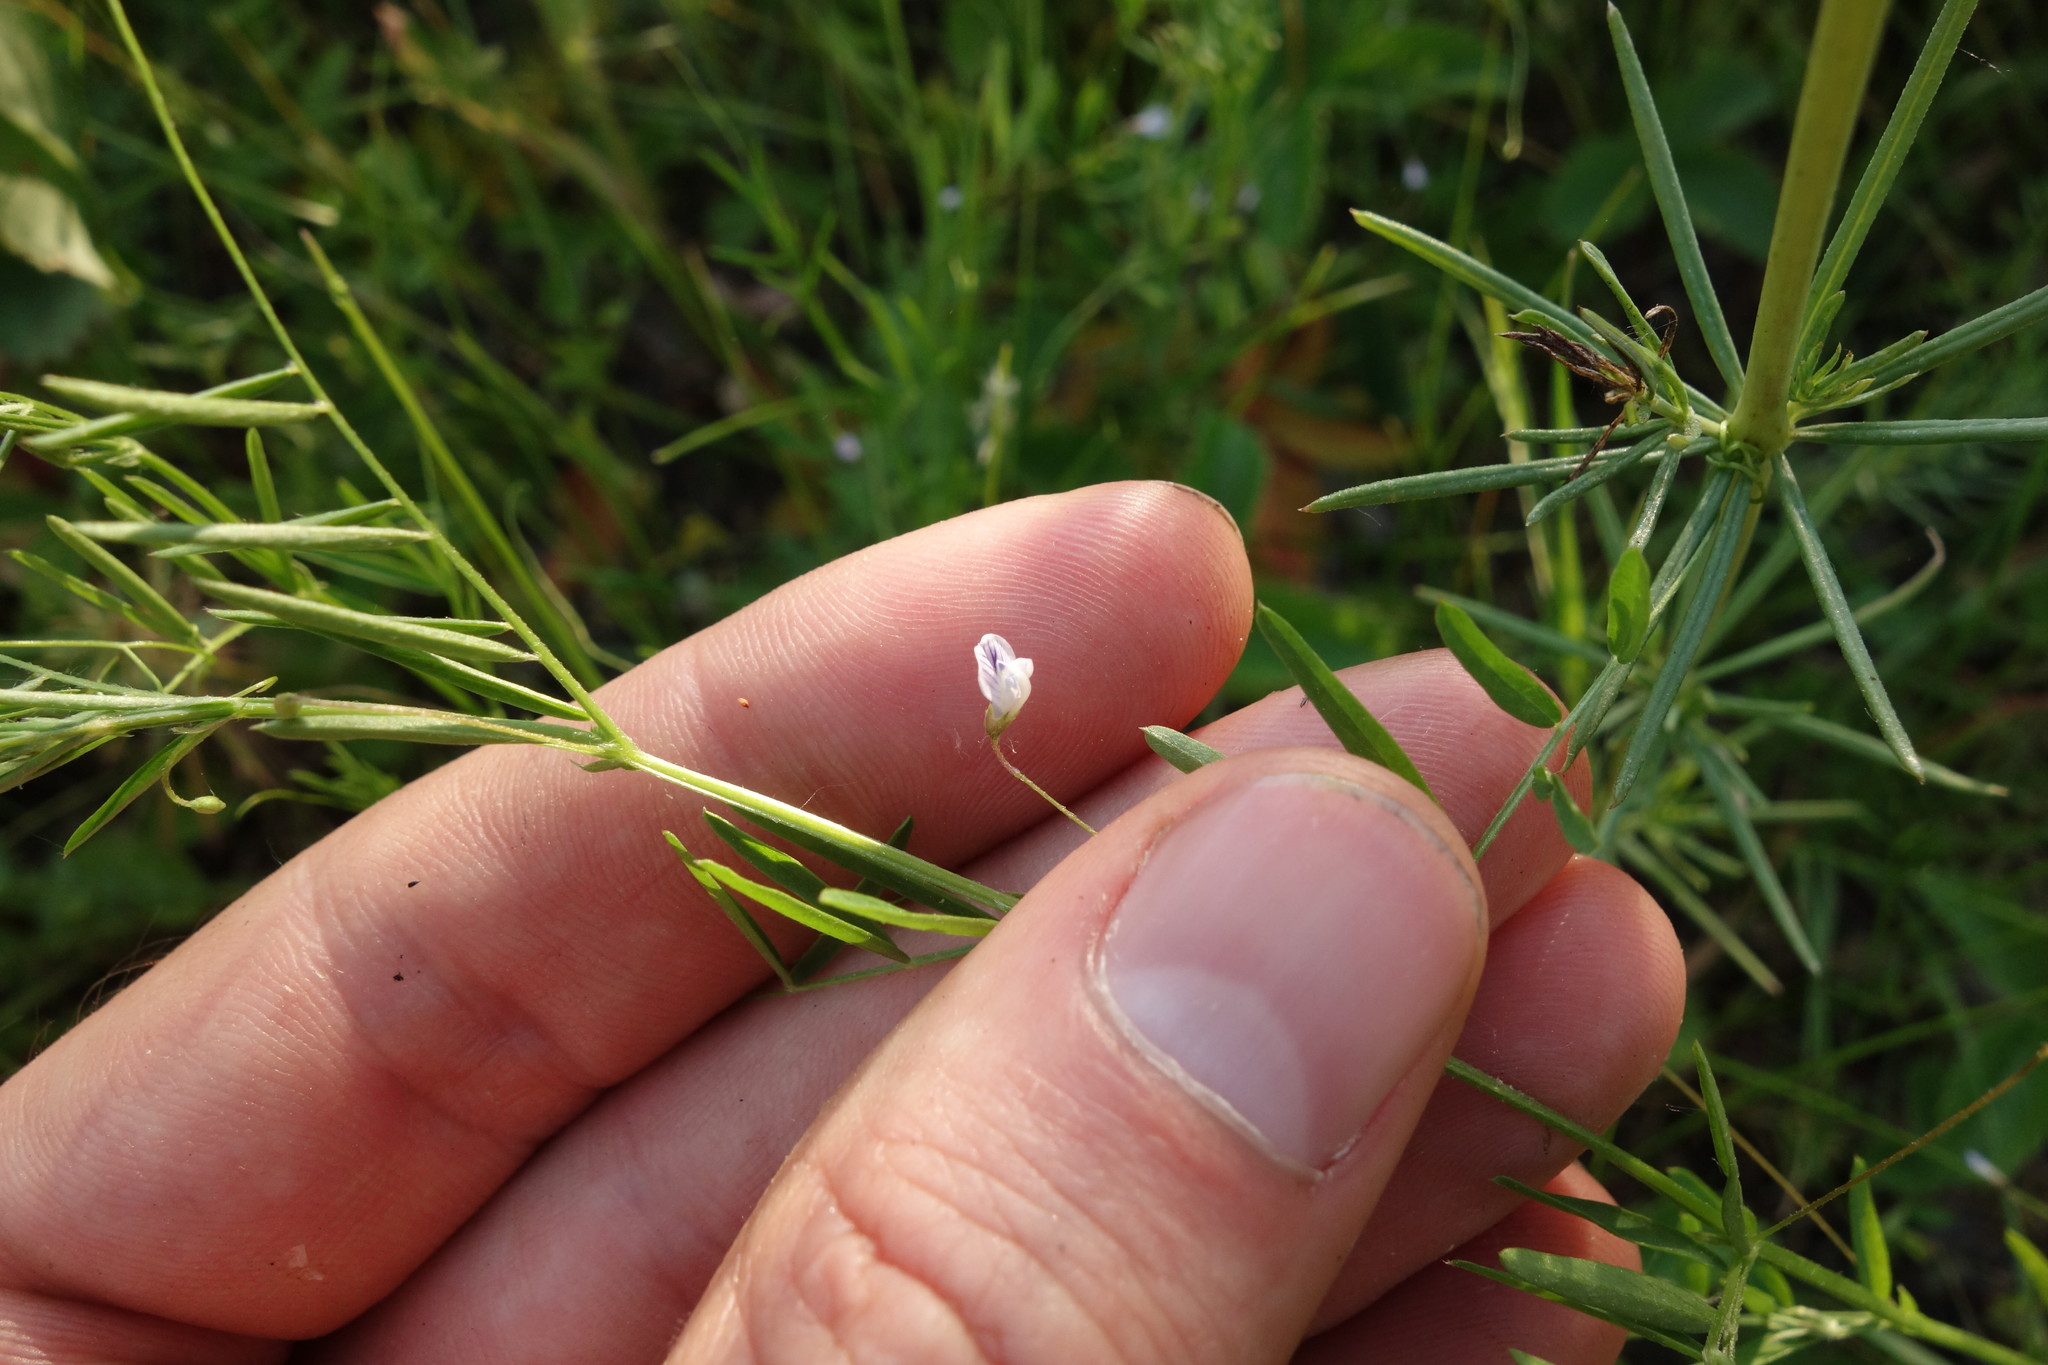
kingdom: Plantae
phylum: Tracheophyta
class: Magnoliopsida
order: Fabales
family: Fabaceae
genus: Vicia
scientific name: Vicia tetrasperma
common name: Smooth tare
